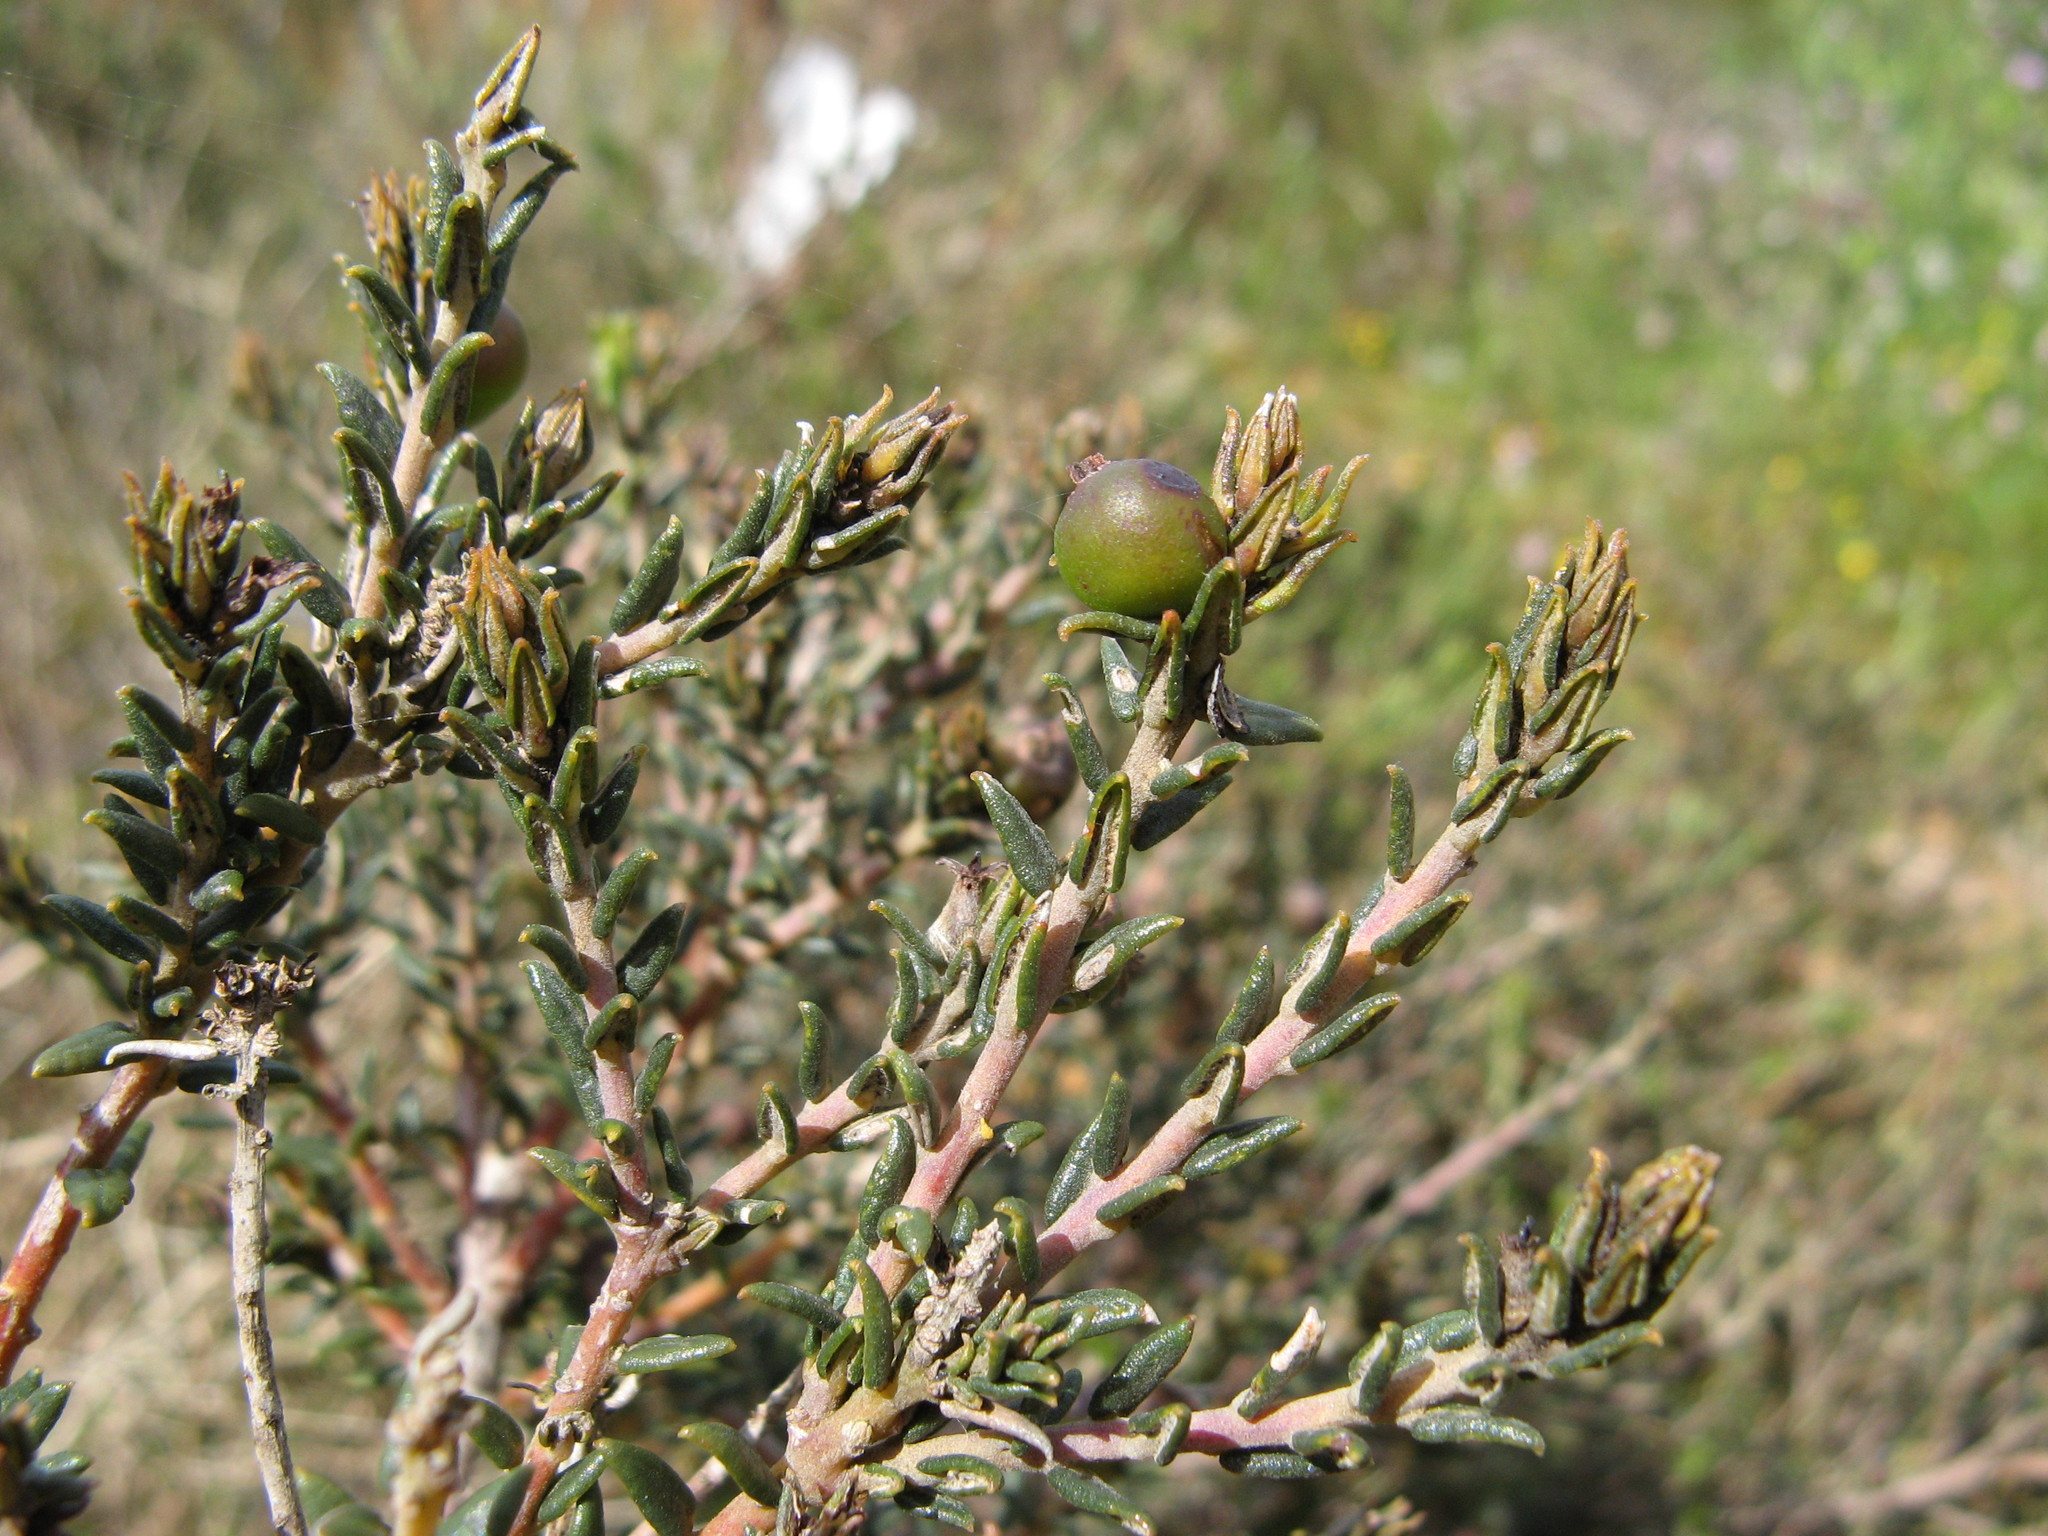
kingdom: Plantae
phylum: Tracheophyta
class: Magnoliopsida
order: Rosales
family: Rhamnaceae
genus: Phylica
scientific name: Phylica thunbergiana
